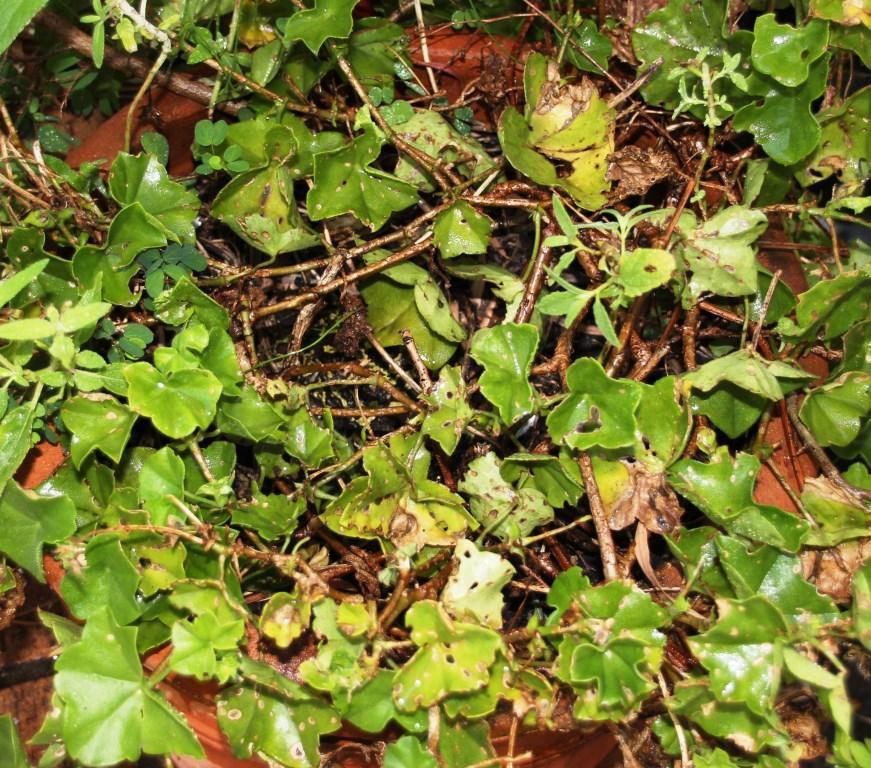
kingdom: Animalia
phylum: Chordata
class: Amphibia
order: Anura
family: Bufonidae
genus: Sclerophrys
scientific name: Sclerophrys pantherina
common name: Panther toad
